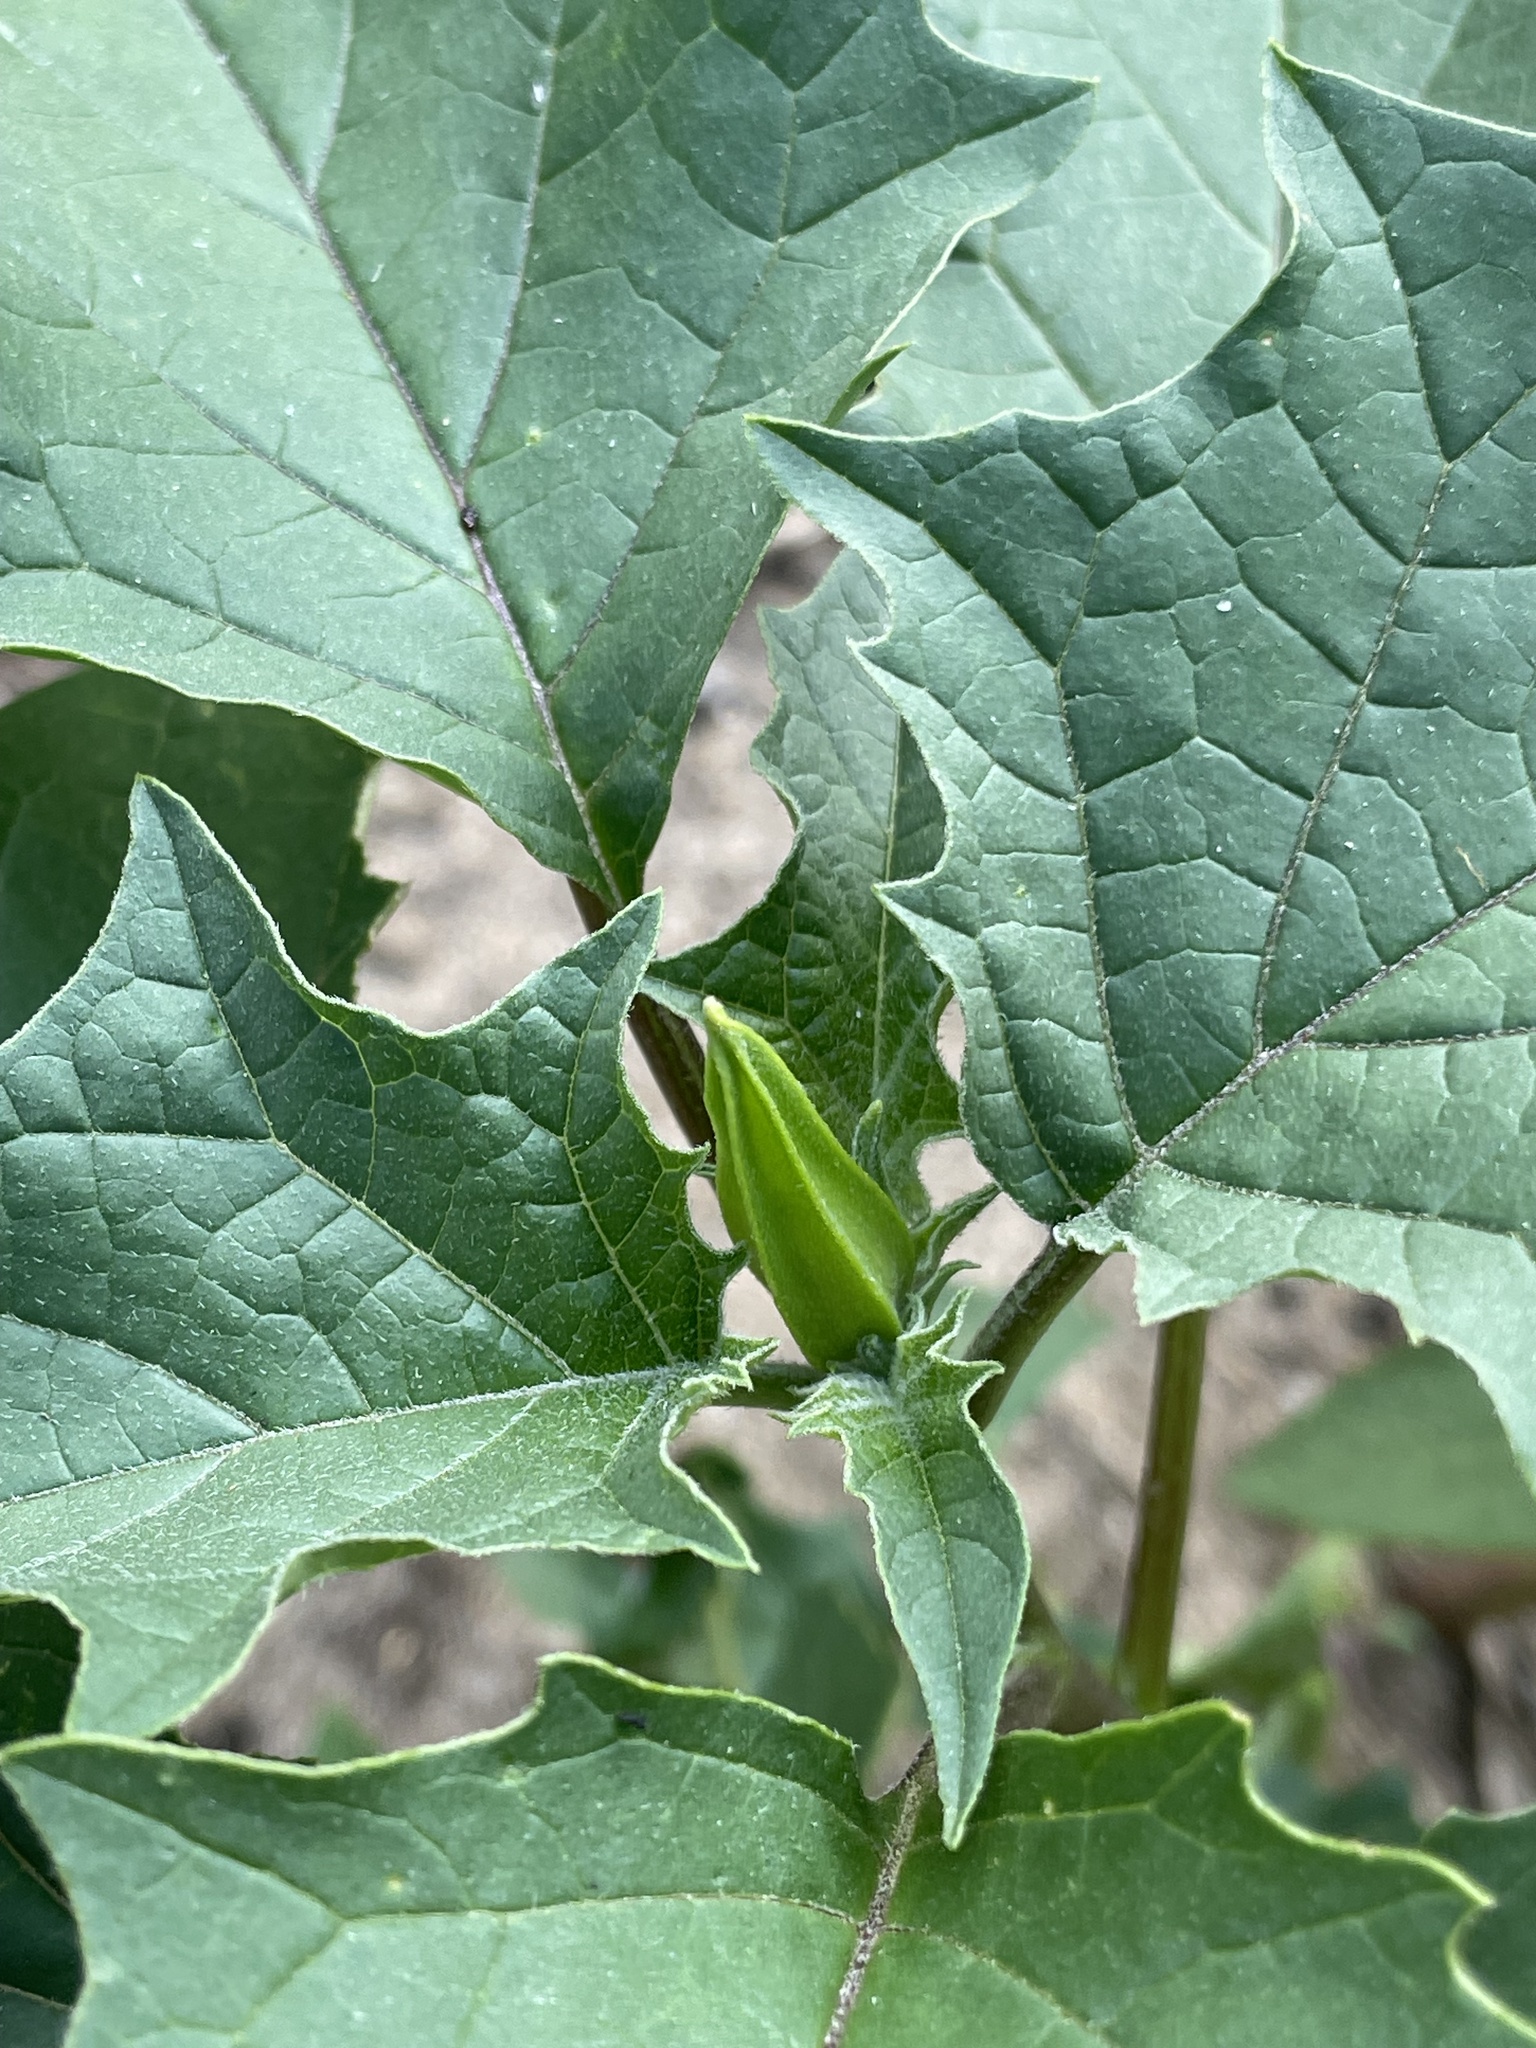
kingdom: Plantae
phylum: Tracheophyta
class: Magnoliopsida
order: Solanales
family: Solanaceae
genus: Datura
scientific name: Datura stramonium
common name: Thorn-apple
